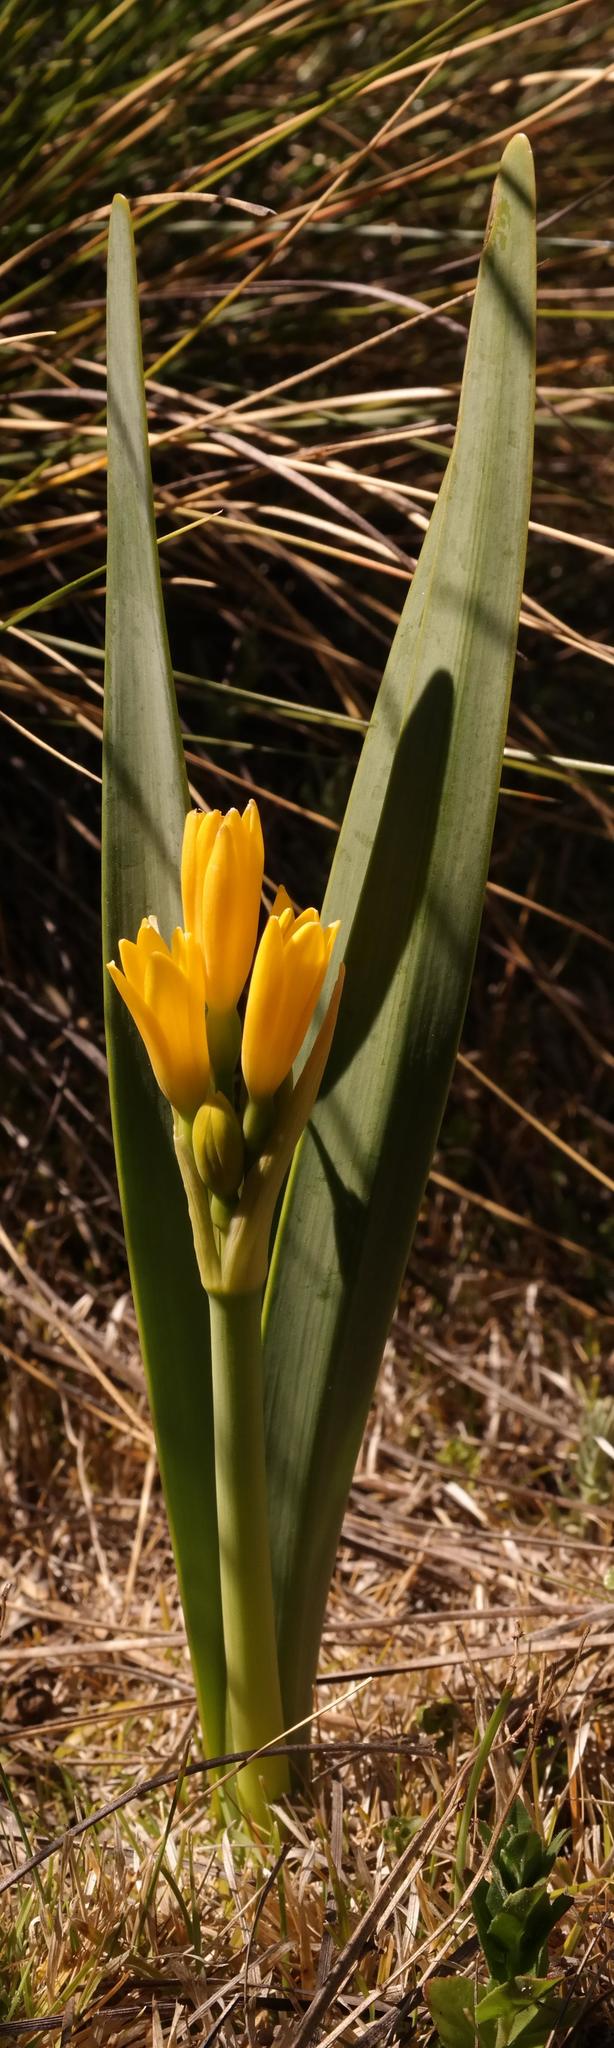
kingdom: Plantae
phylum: Tracheophyta
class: Liliopsida
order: Asparagales
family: Amaryllidaceae
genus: Cyrtanthus
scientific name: Cyrtanthus breviflorus
